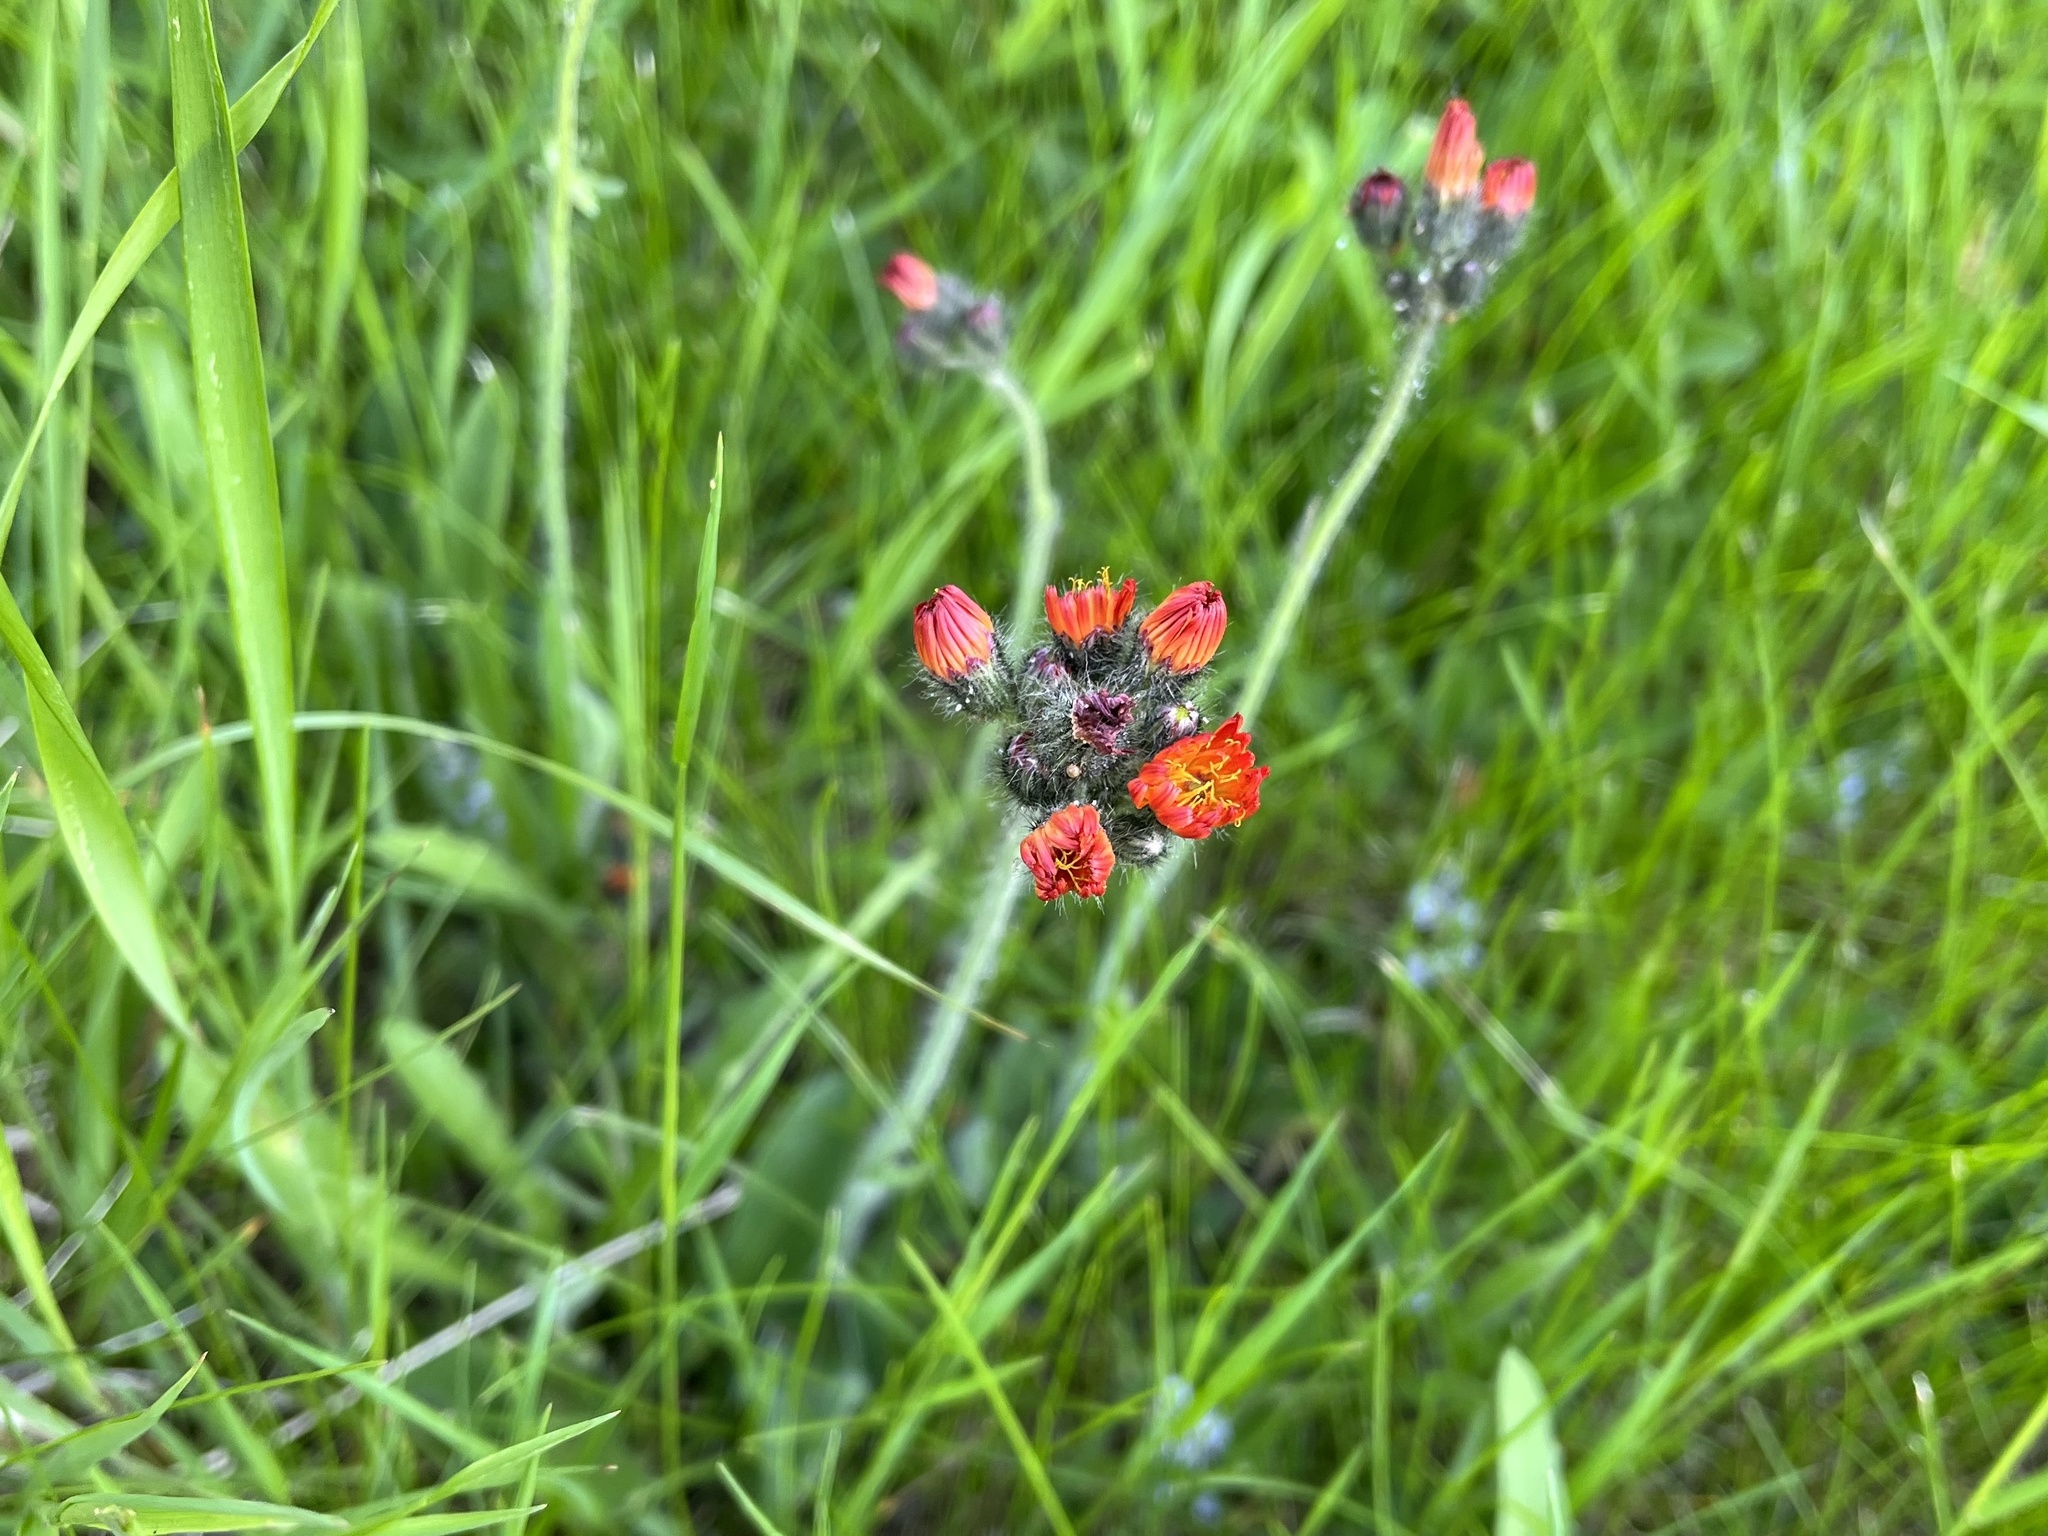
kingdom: Plantae
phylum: Tracheophyta
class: Magnoliopsida
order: Asterales
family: Asteraceae
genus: Pilosella
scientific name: Pilosella aurantiaca
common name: Fox-and-cubs
